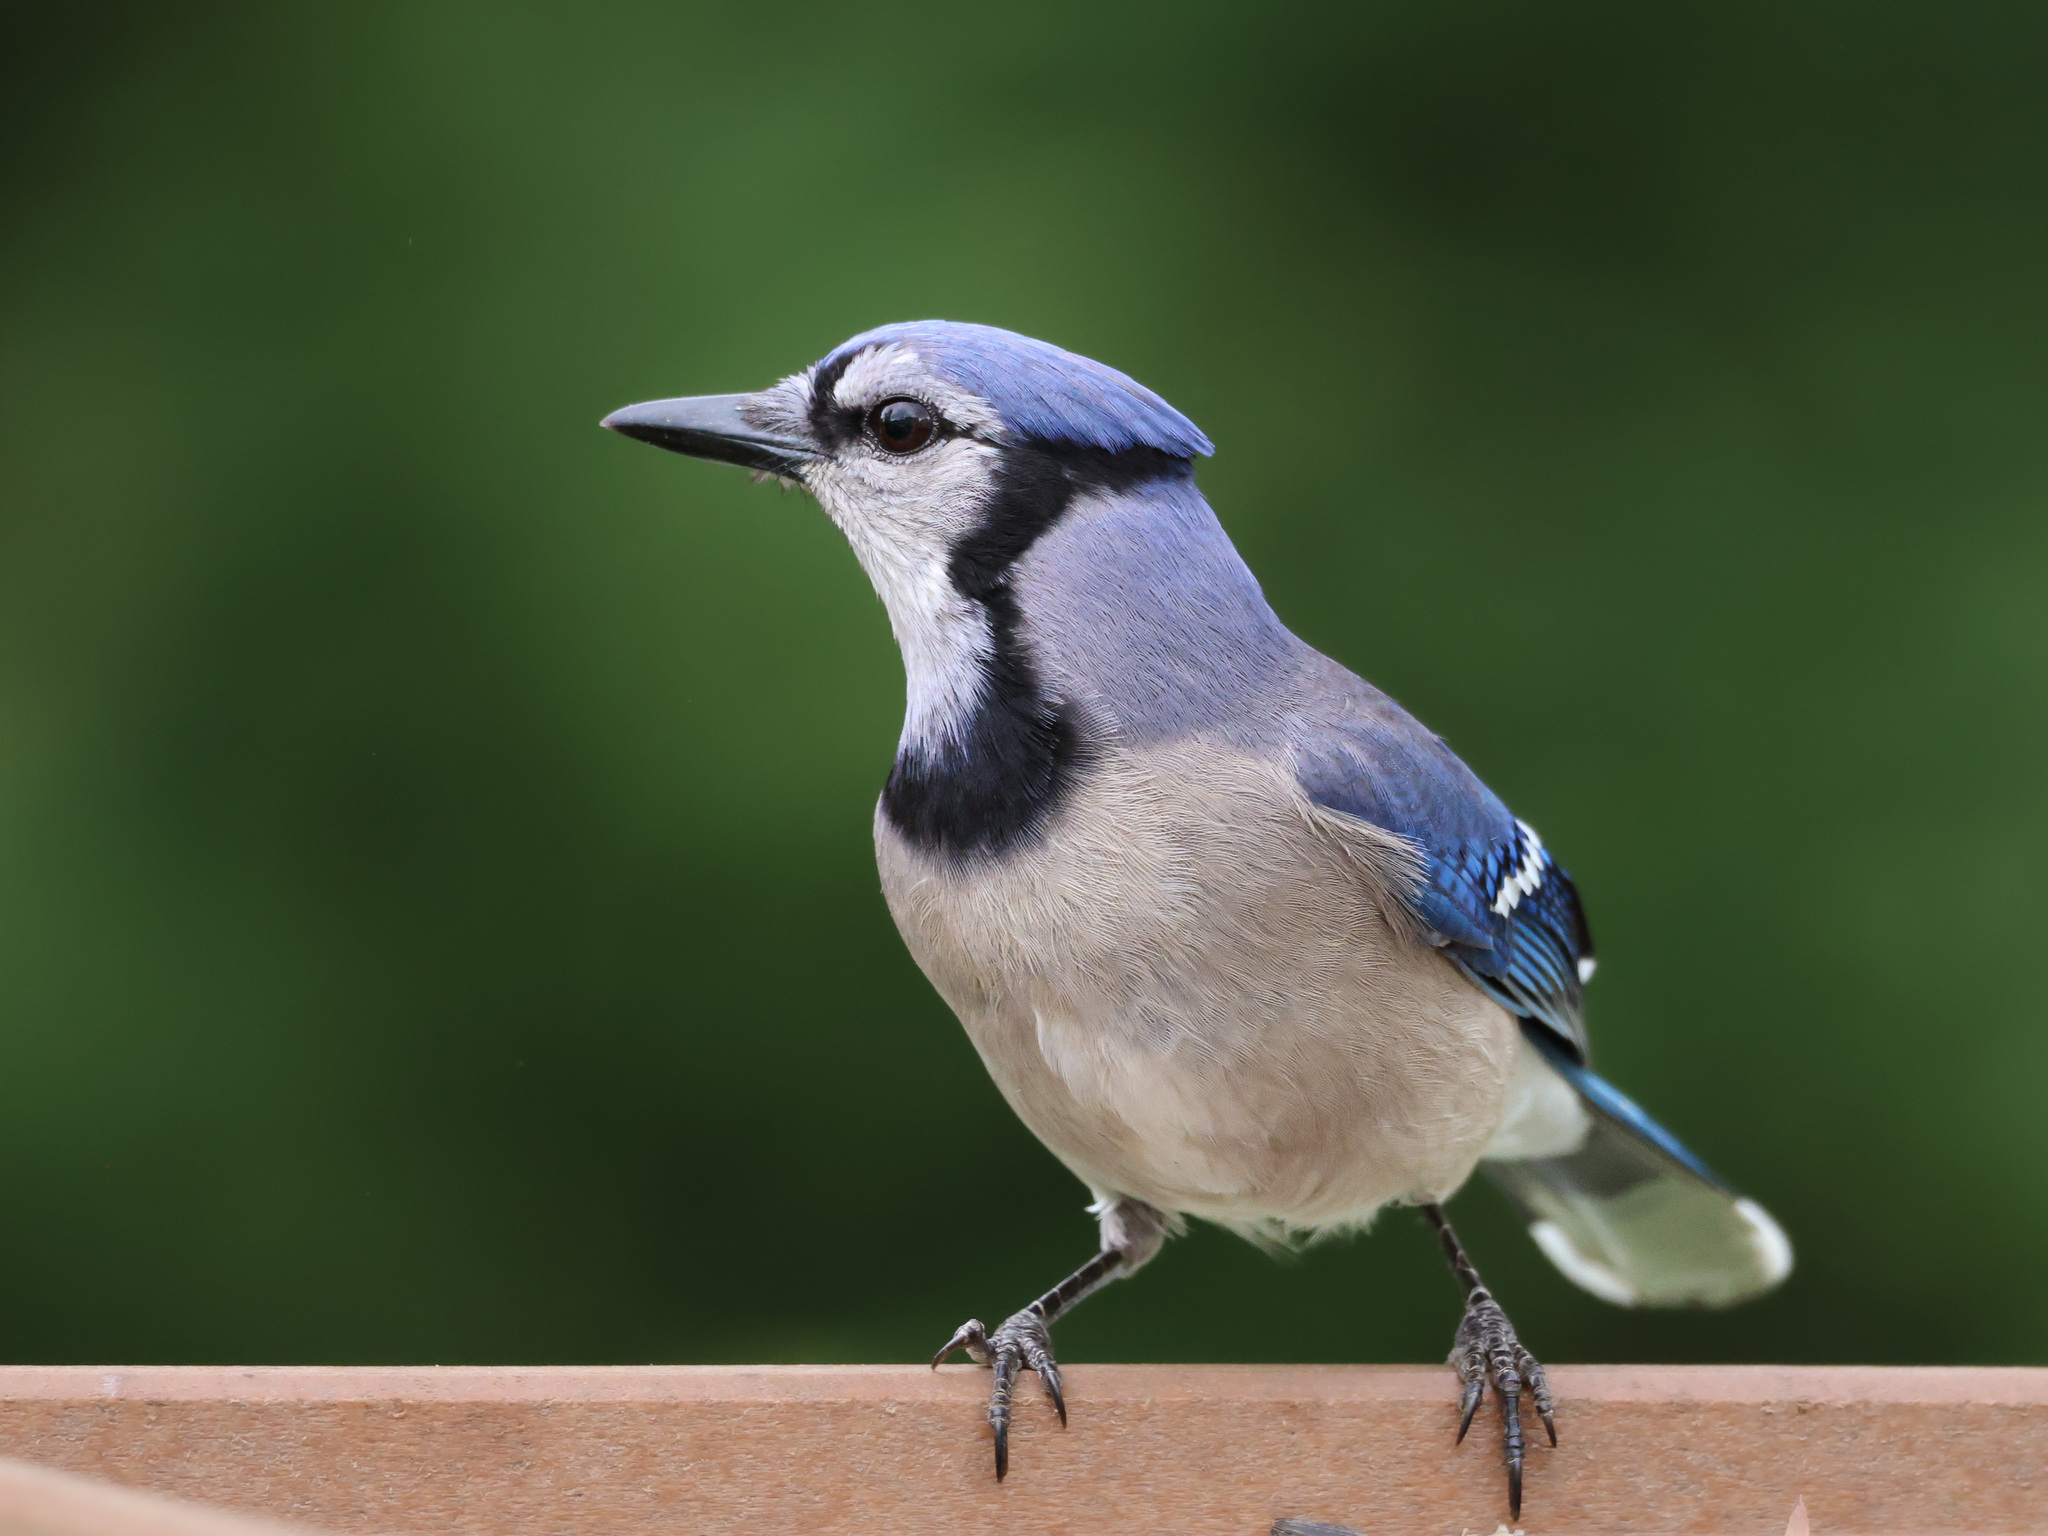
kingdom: Animalia
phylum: Chordata
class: Aves
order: Passeriformes
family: Corvidae
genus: Cyanocitta
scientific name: Cyanocitta cristata
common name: Blue jay
